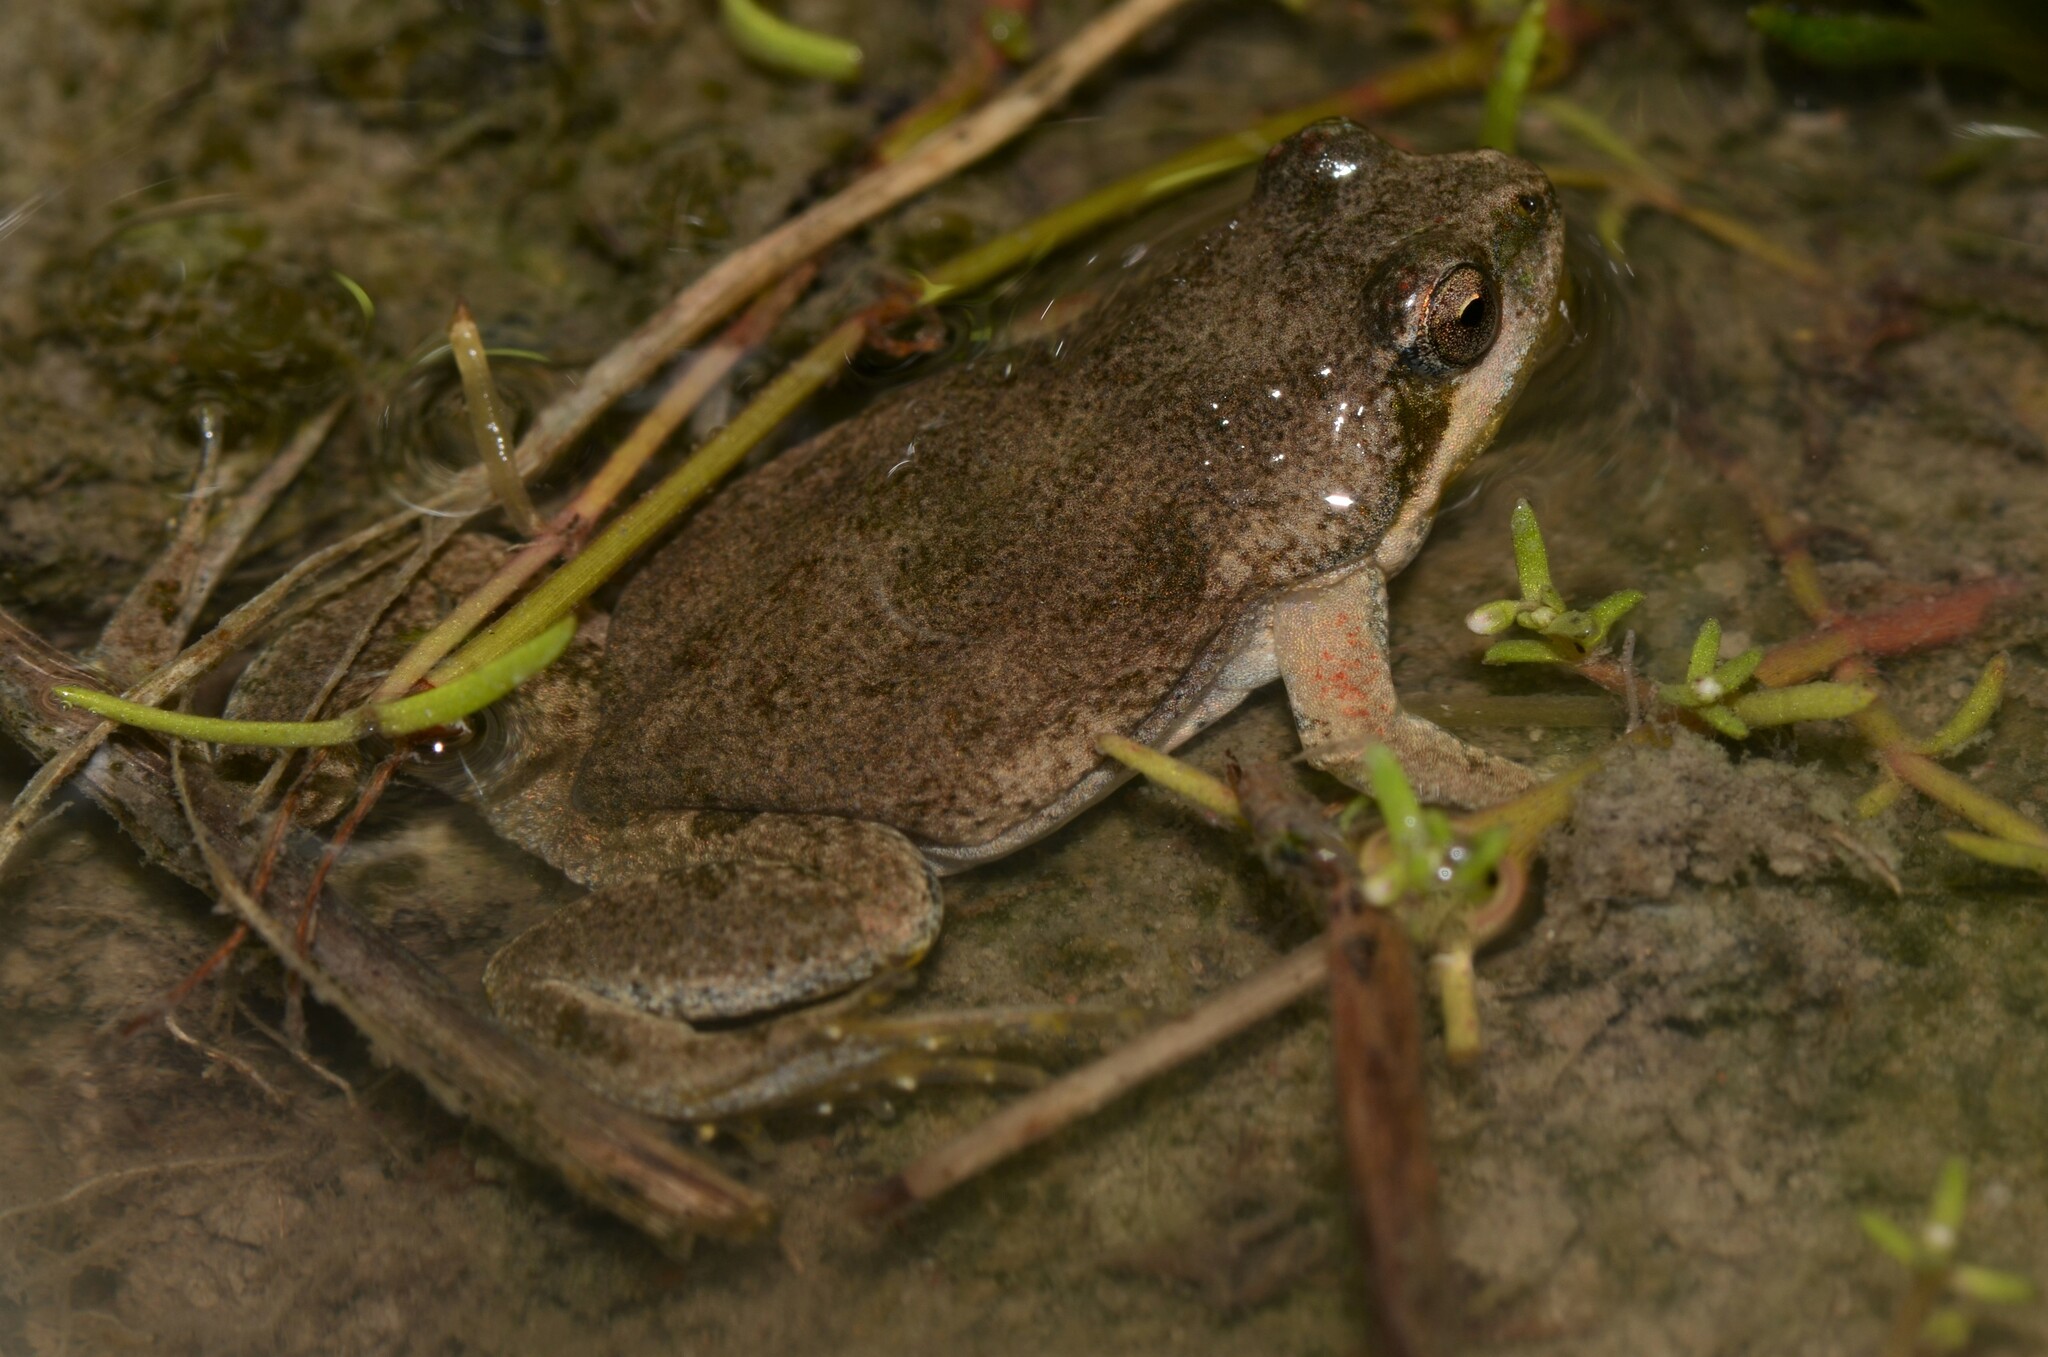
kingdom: Animalia
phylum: Chordata
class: Amphibia
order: Anura
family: Pyxicephalidae
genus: Cacosternum
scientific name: Cacosternum aggestum
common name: Klipheuwel dainty frog
